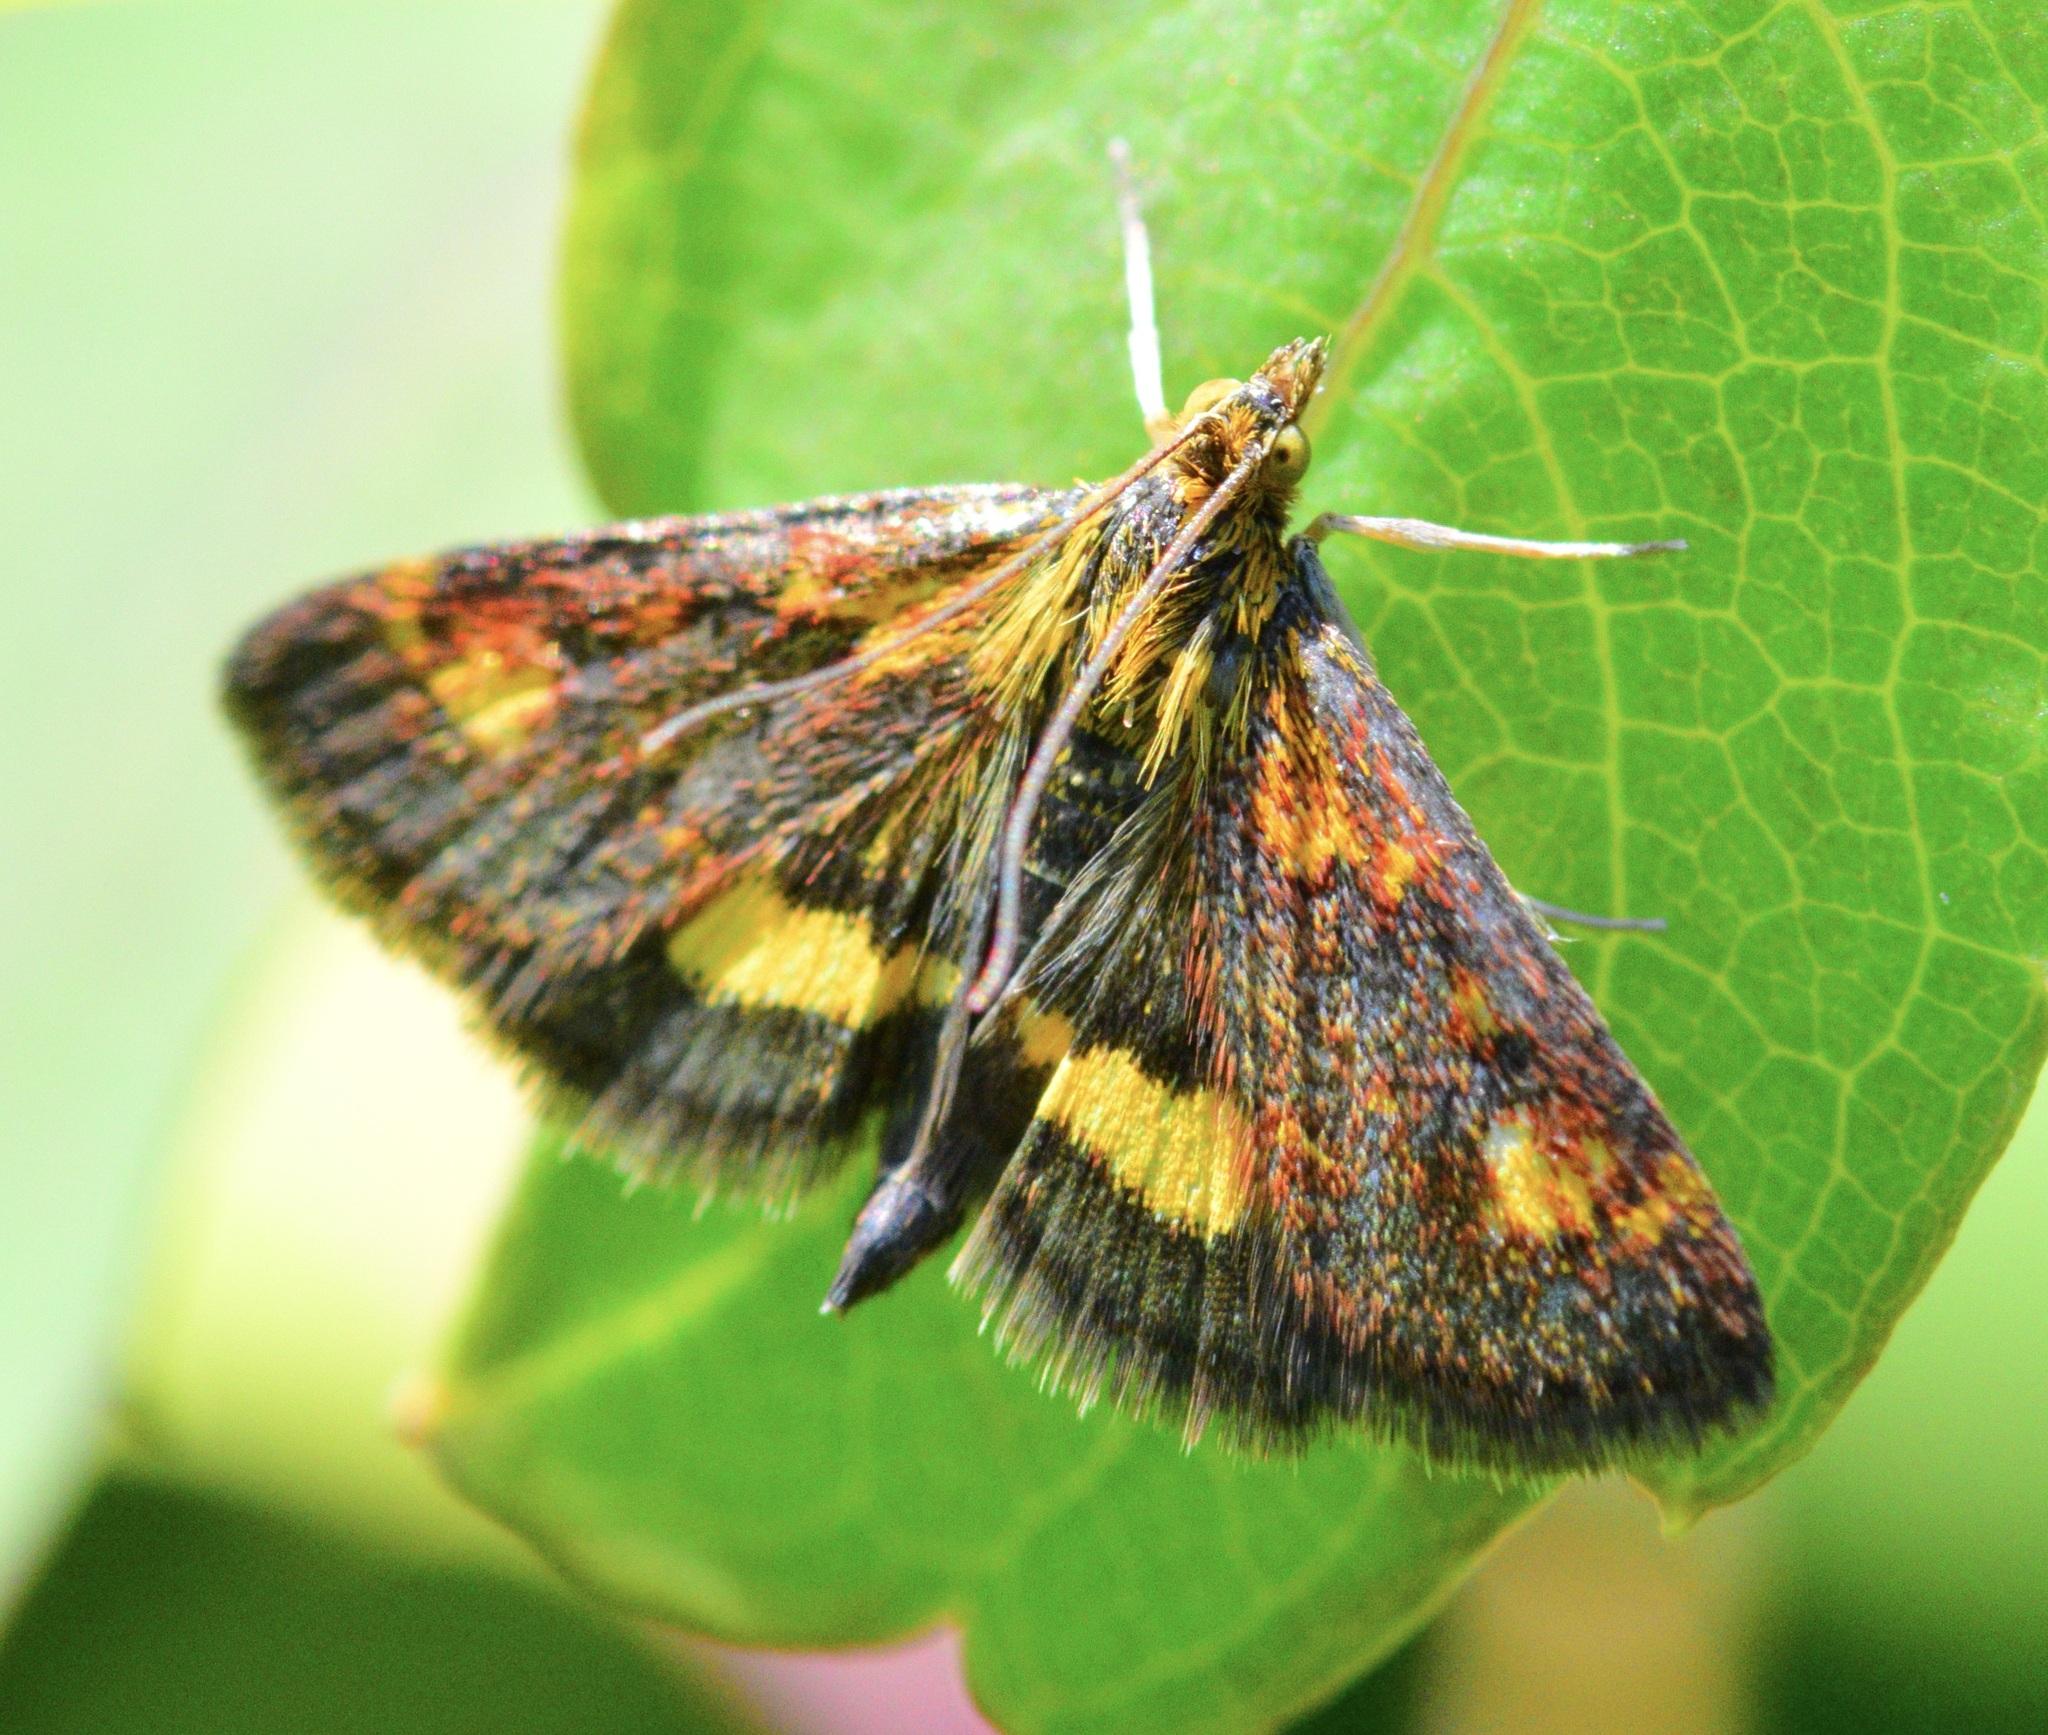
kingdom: Animalia
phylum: Arthropoda
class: Insecta
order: Lepidoptera
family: Crambidae
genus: Pyrausta
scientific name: Pyrausta orphisalis
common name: Orange mint moth
